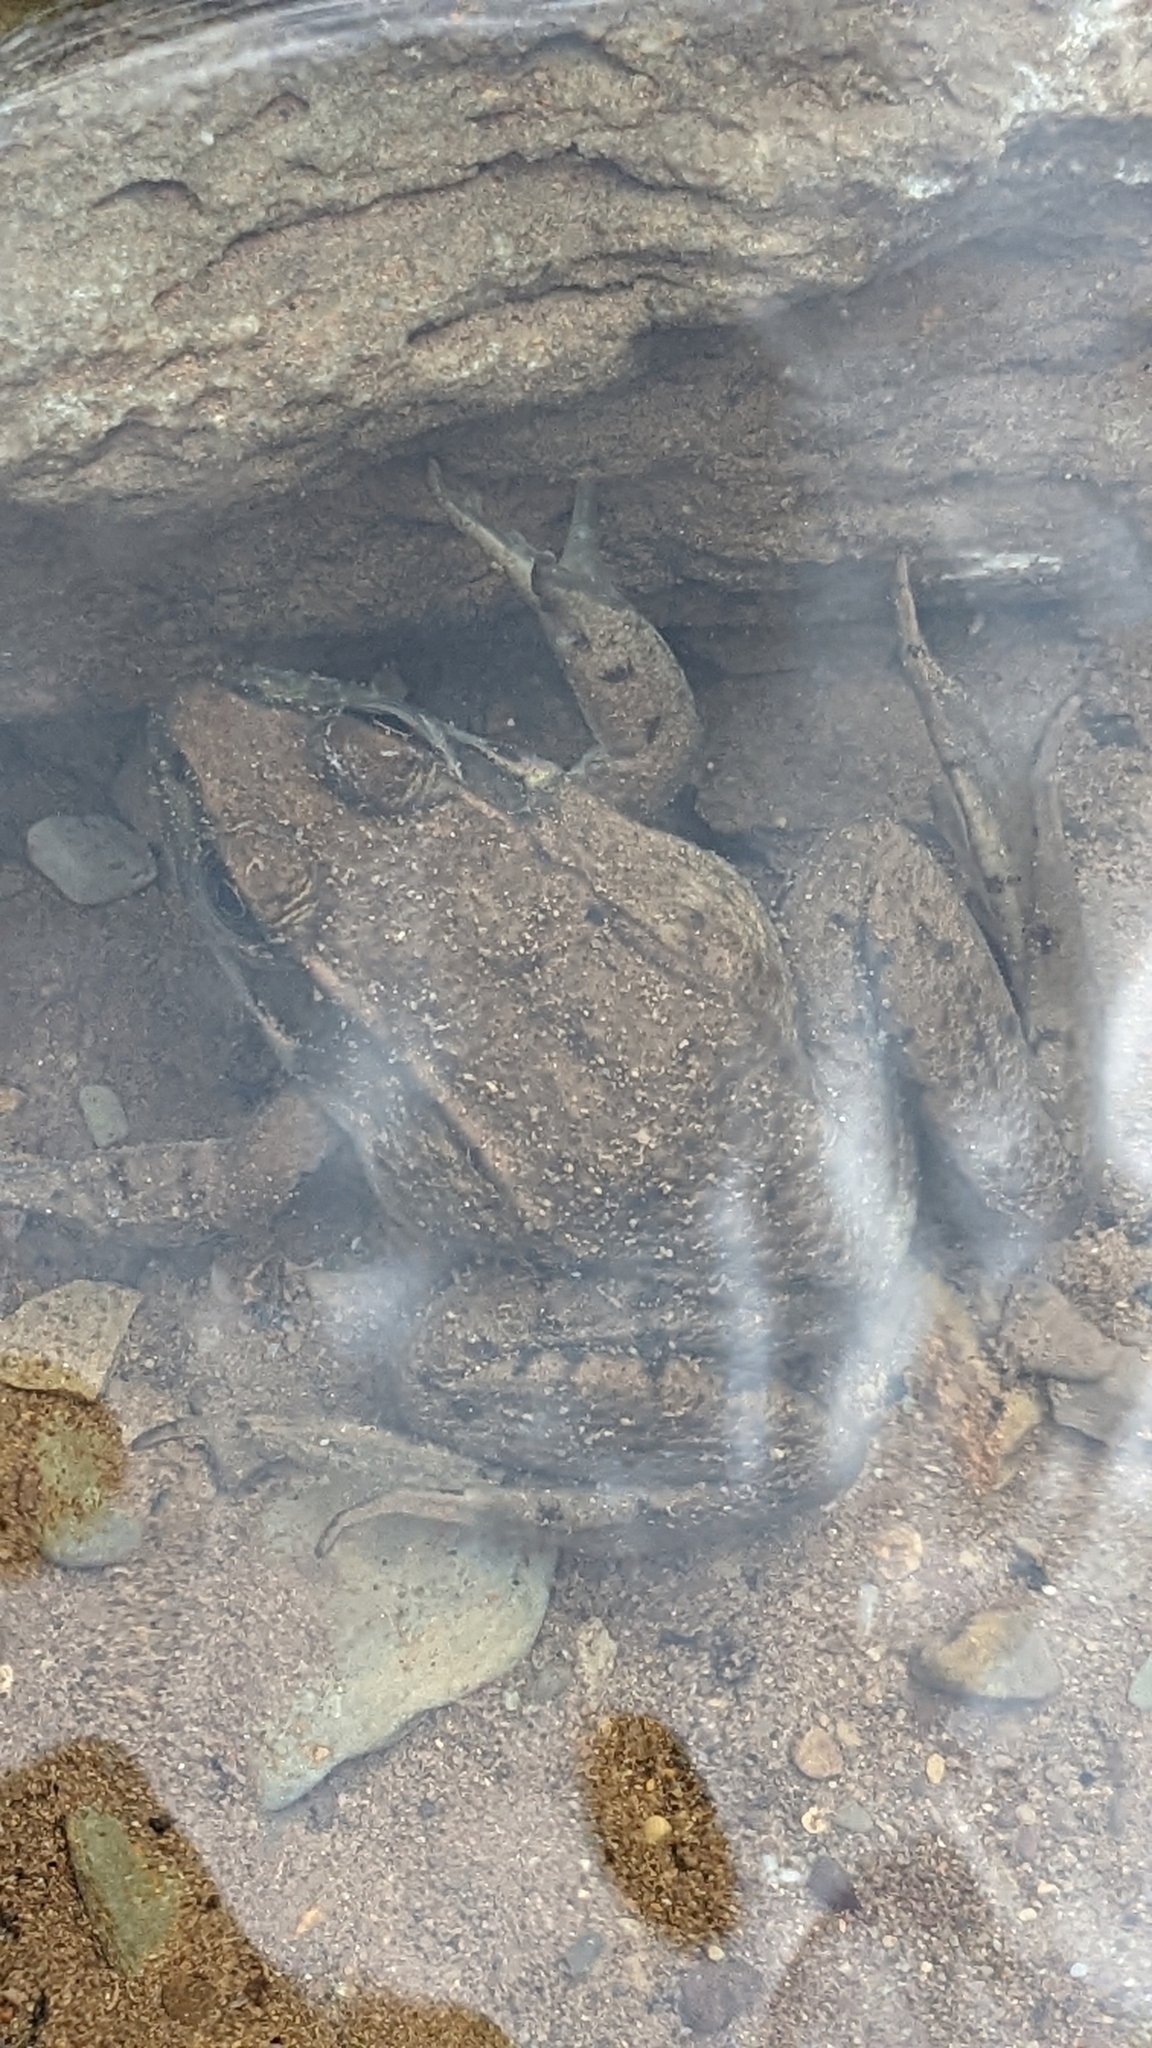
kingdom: Animalia
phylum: Chordata
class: Amphibia
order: Anura
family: Ranidae
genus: Lithobates
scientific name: Lithobates clamitans
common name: Green frog
